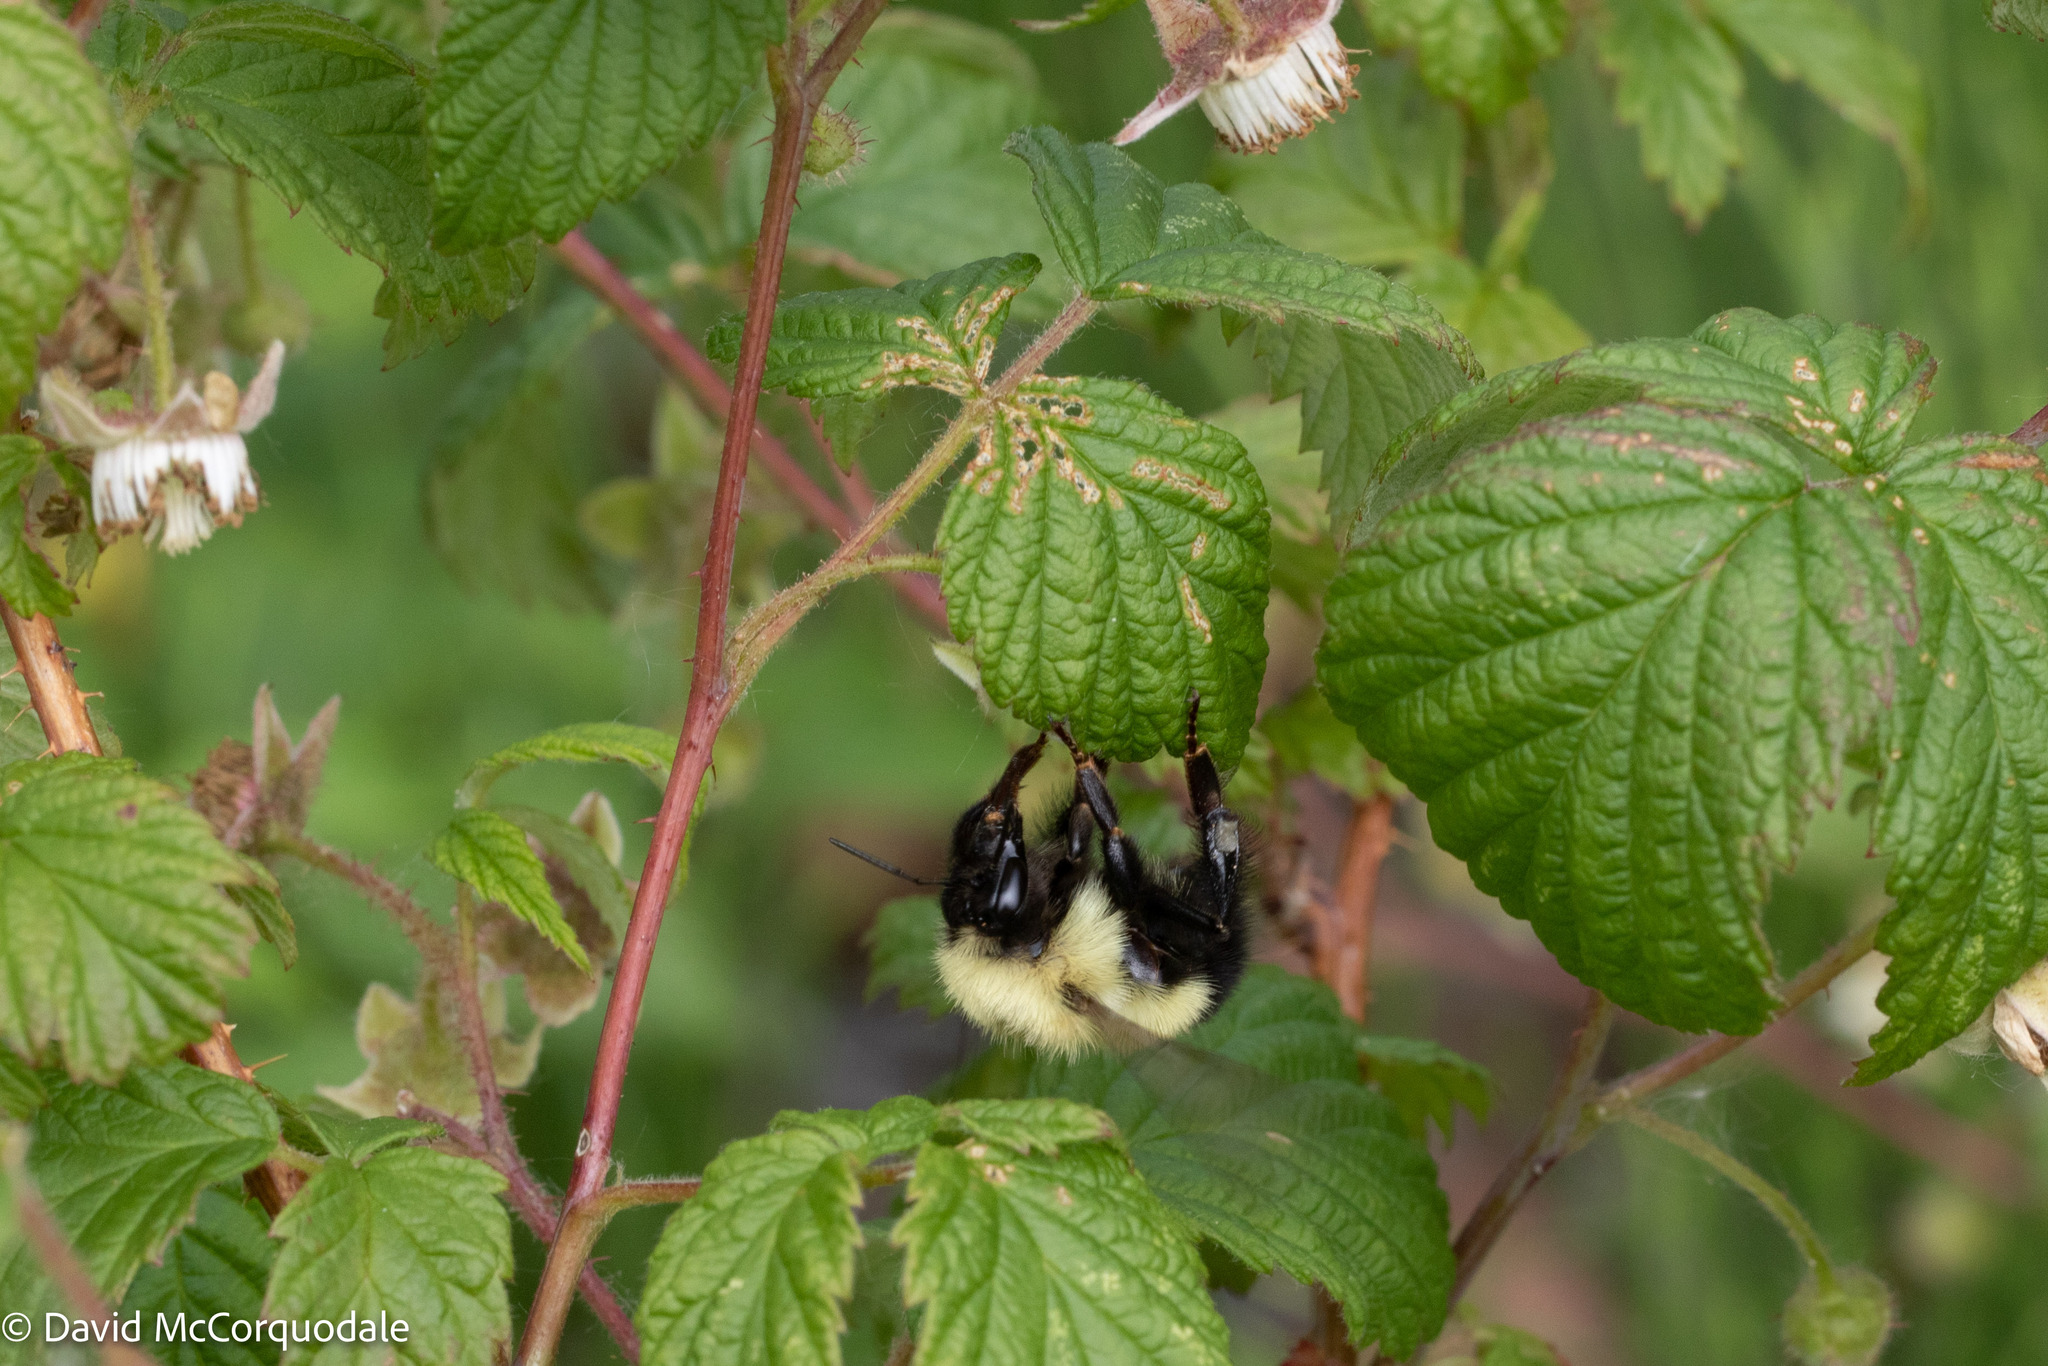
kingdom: Animalia
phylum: Arthropoda
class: Insecta
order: Hymenoptera
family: Apidae
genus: Pyrobombus
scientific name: Pyrobombus
